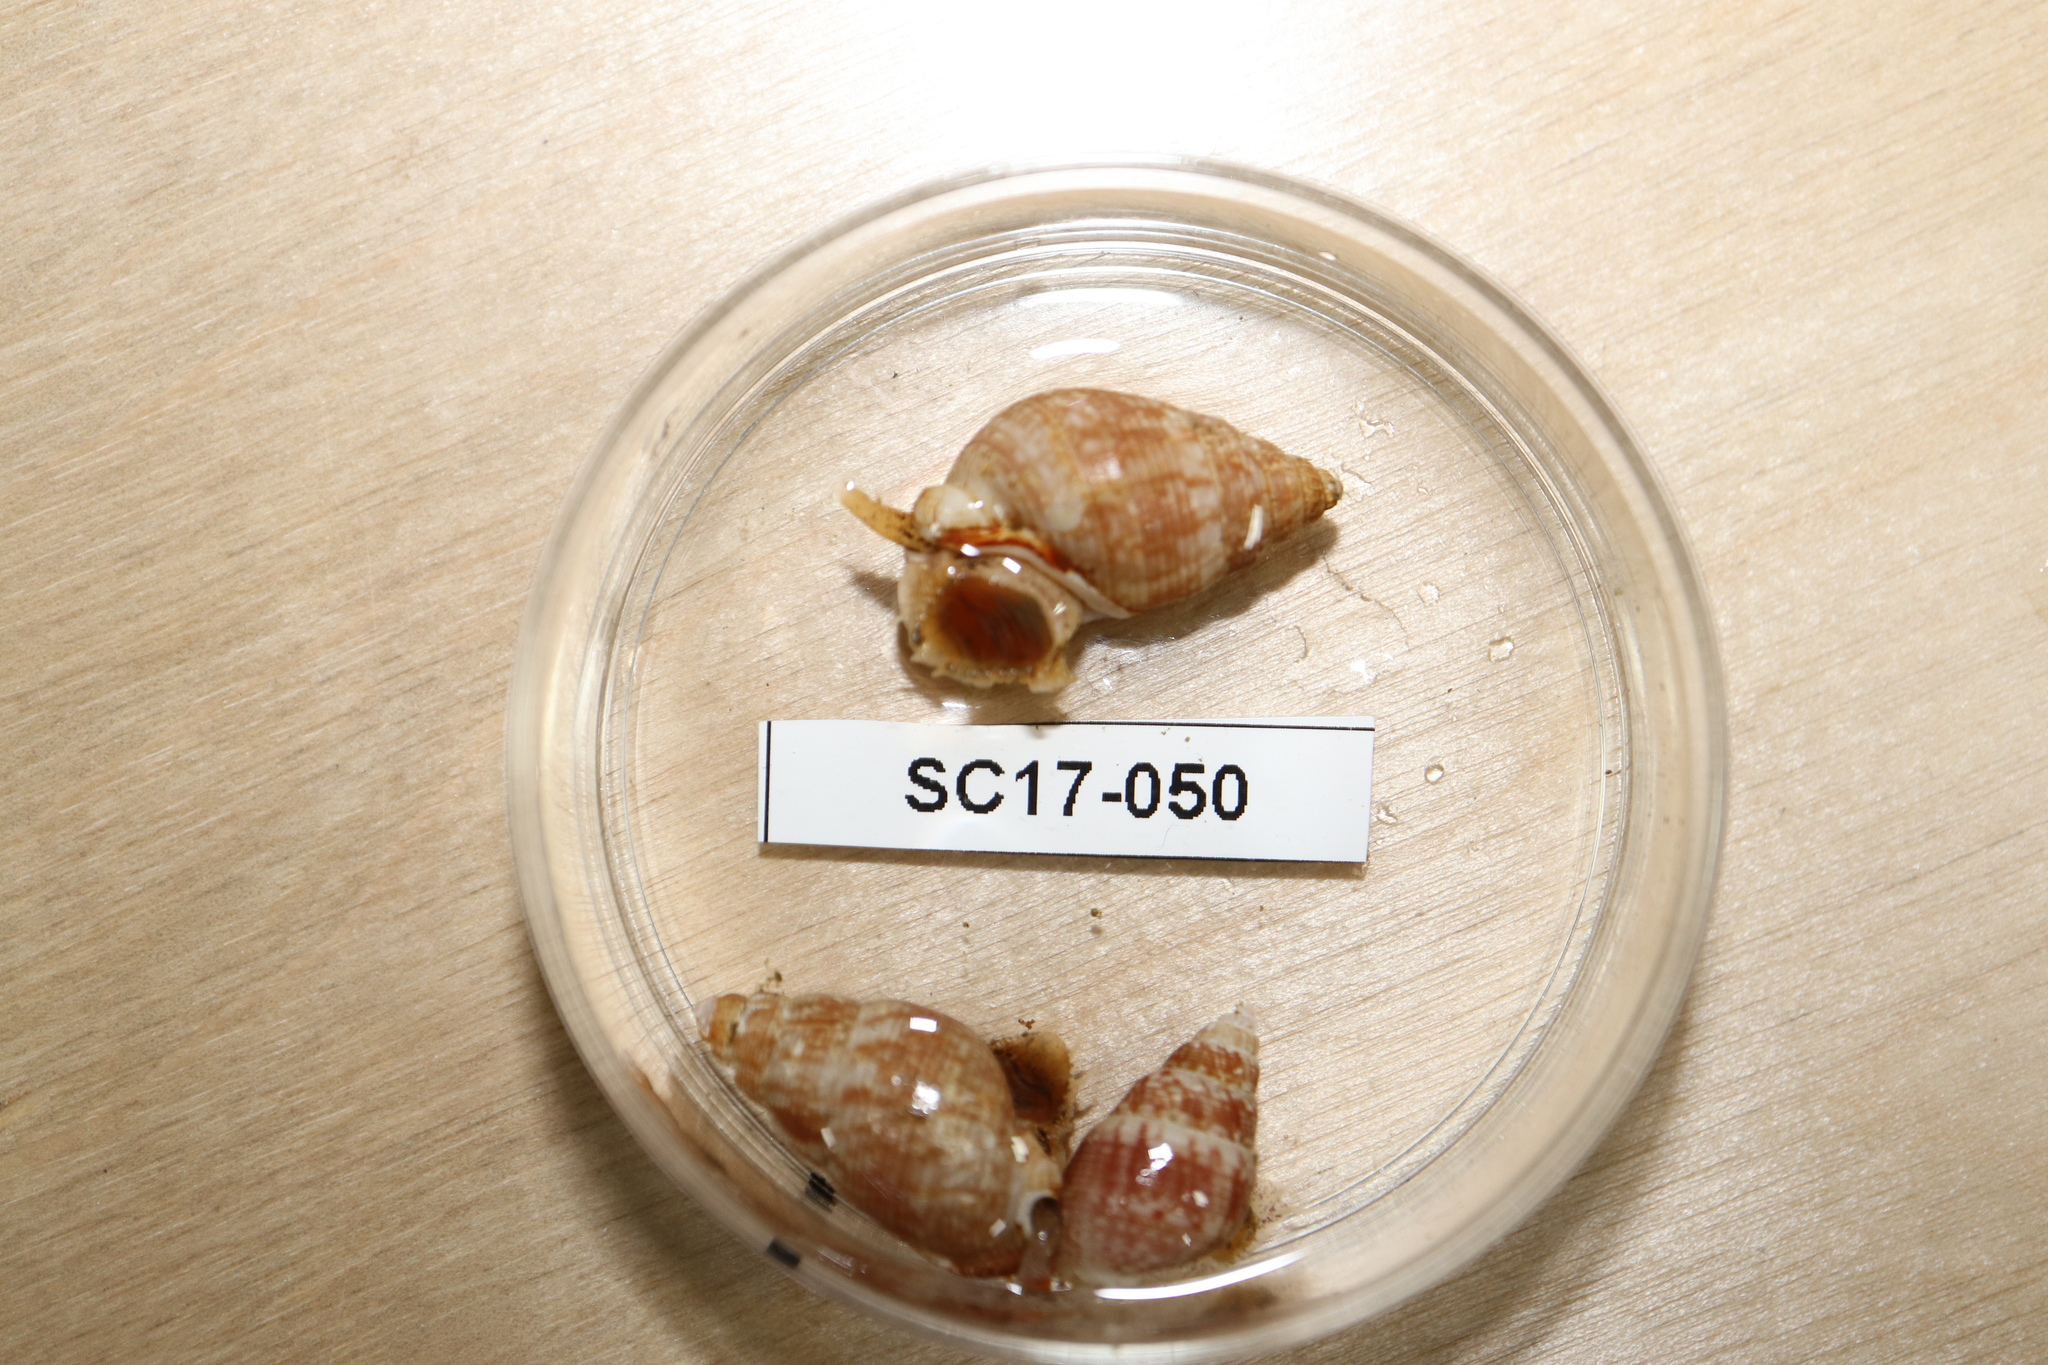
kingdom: Animalia
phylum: Mollusca
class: Gastropoda
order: Neogastropoda
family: Nassariidae
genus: Nassarius
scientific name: Nassarius insculptus
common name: Smooth western nassa
